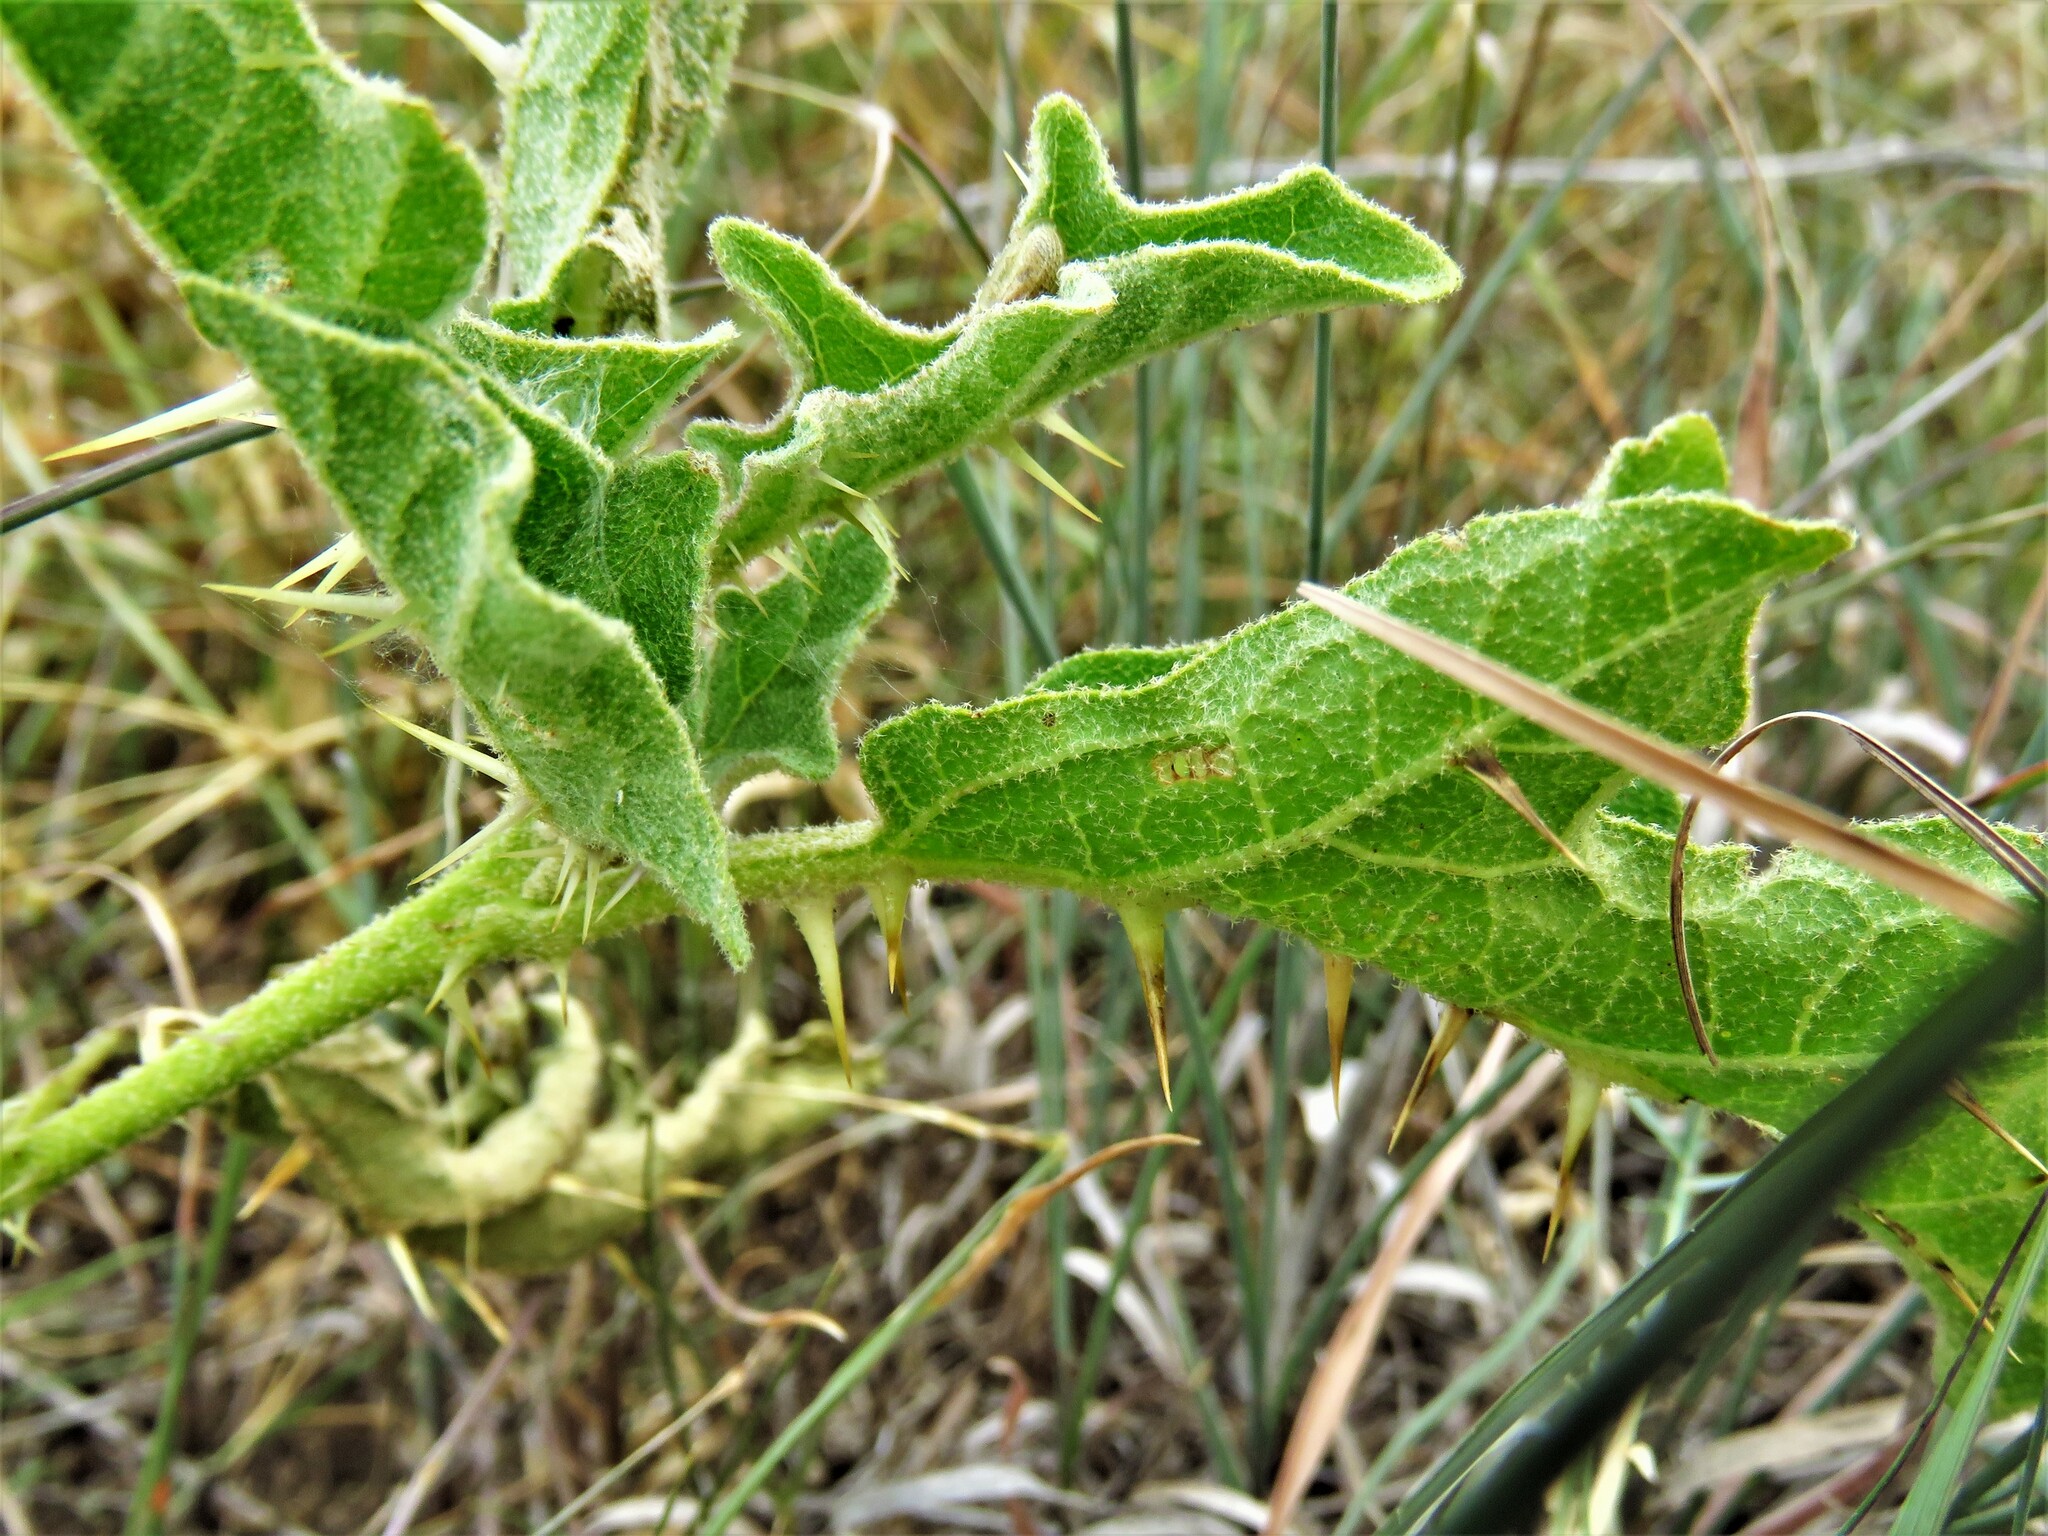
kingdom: Plantae
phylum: Tracheophyta
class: Magnoliopsida
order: Solanales
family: Solanaceae
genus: Solanum
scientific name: Solanum dimidiatum
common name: Carolina horse-nettle
